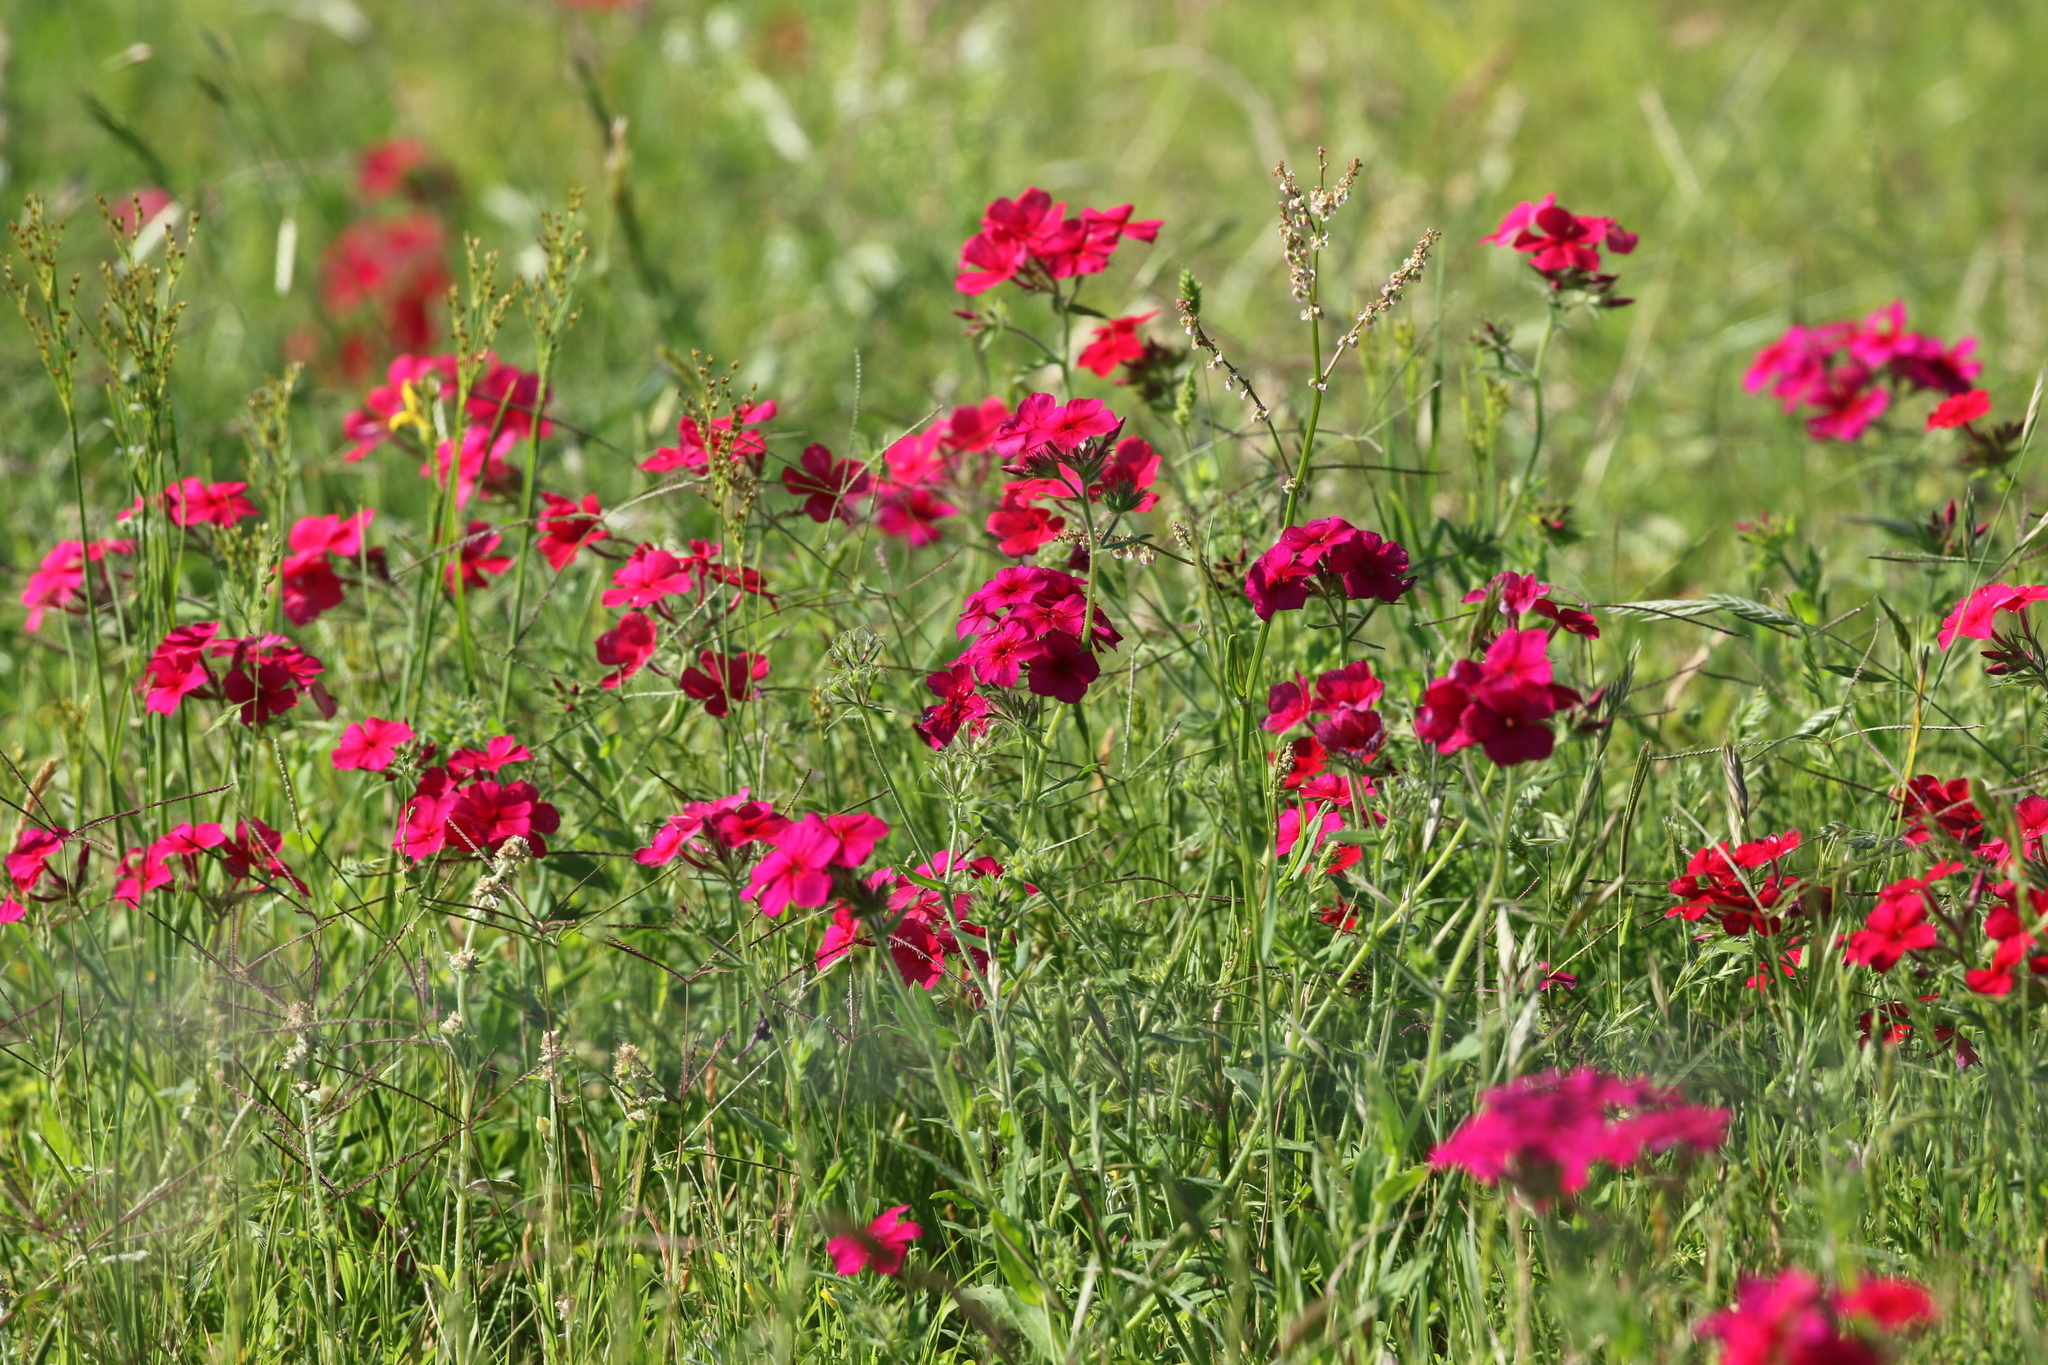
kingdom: Plantae
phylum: Tracheophyta
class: Magnoliopsida
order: Ericales
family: Polemoniaceae
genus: Phlox
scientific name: Phlox drummondii
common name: Drummond's phlox
